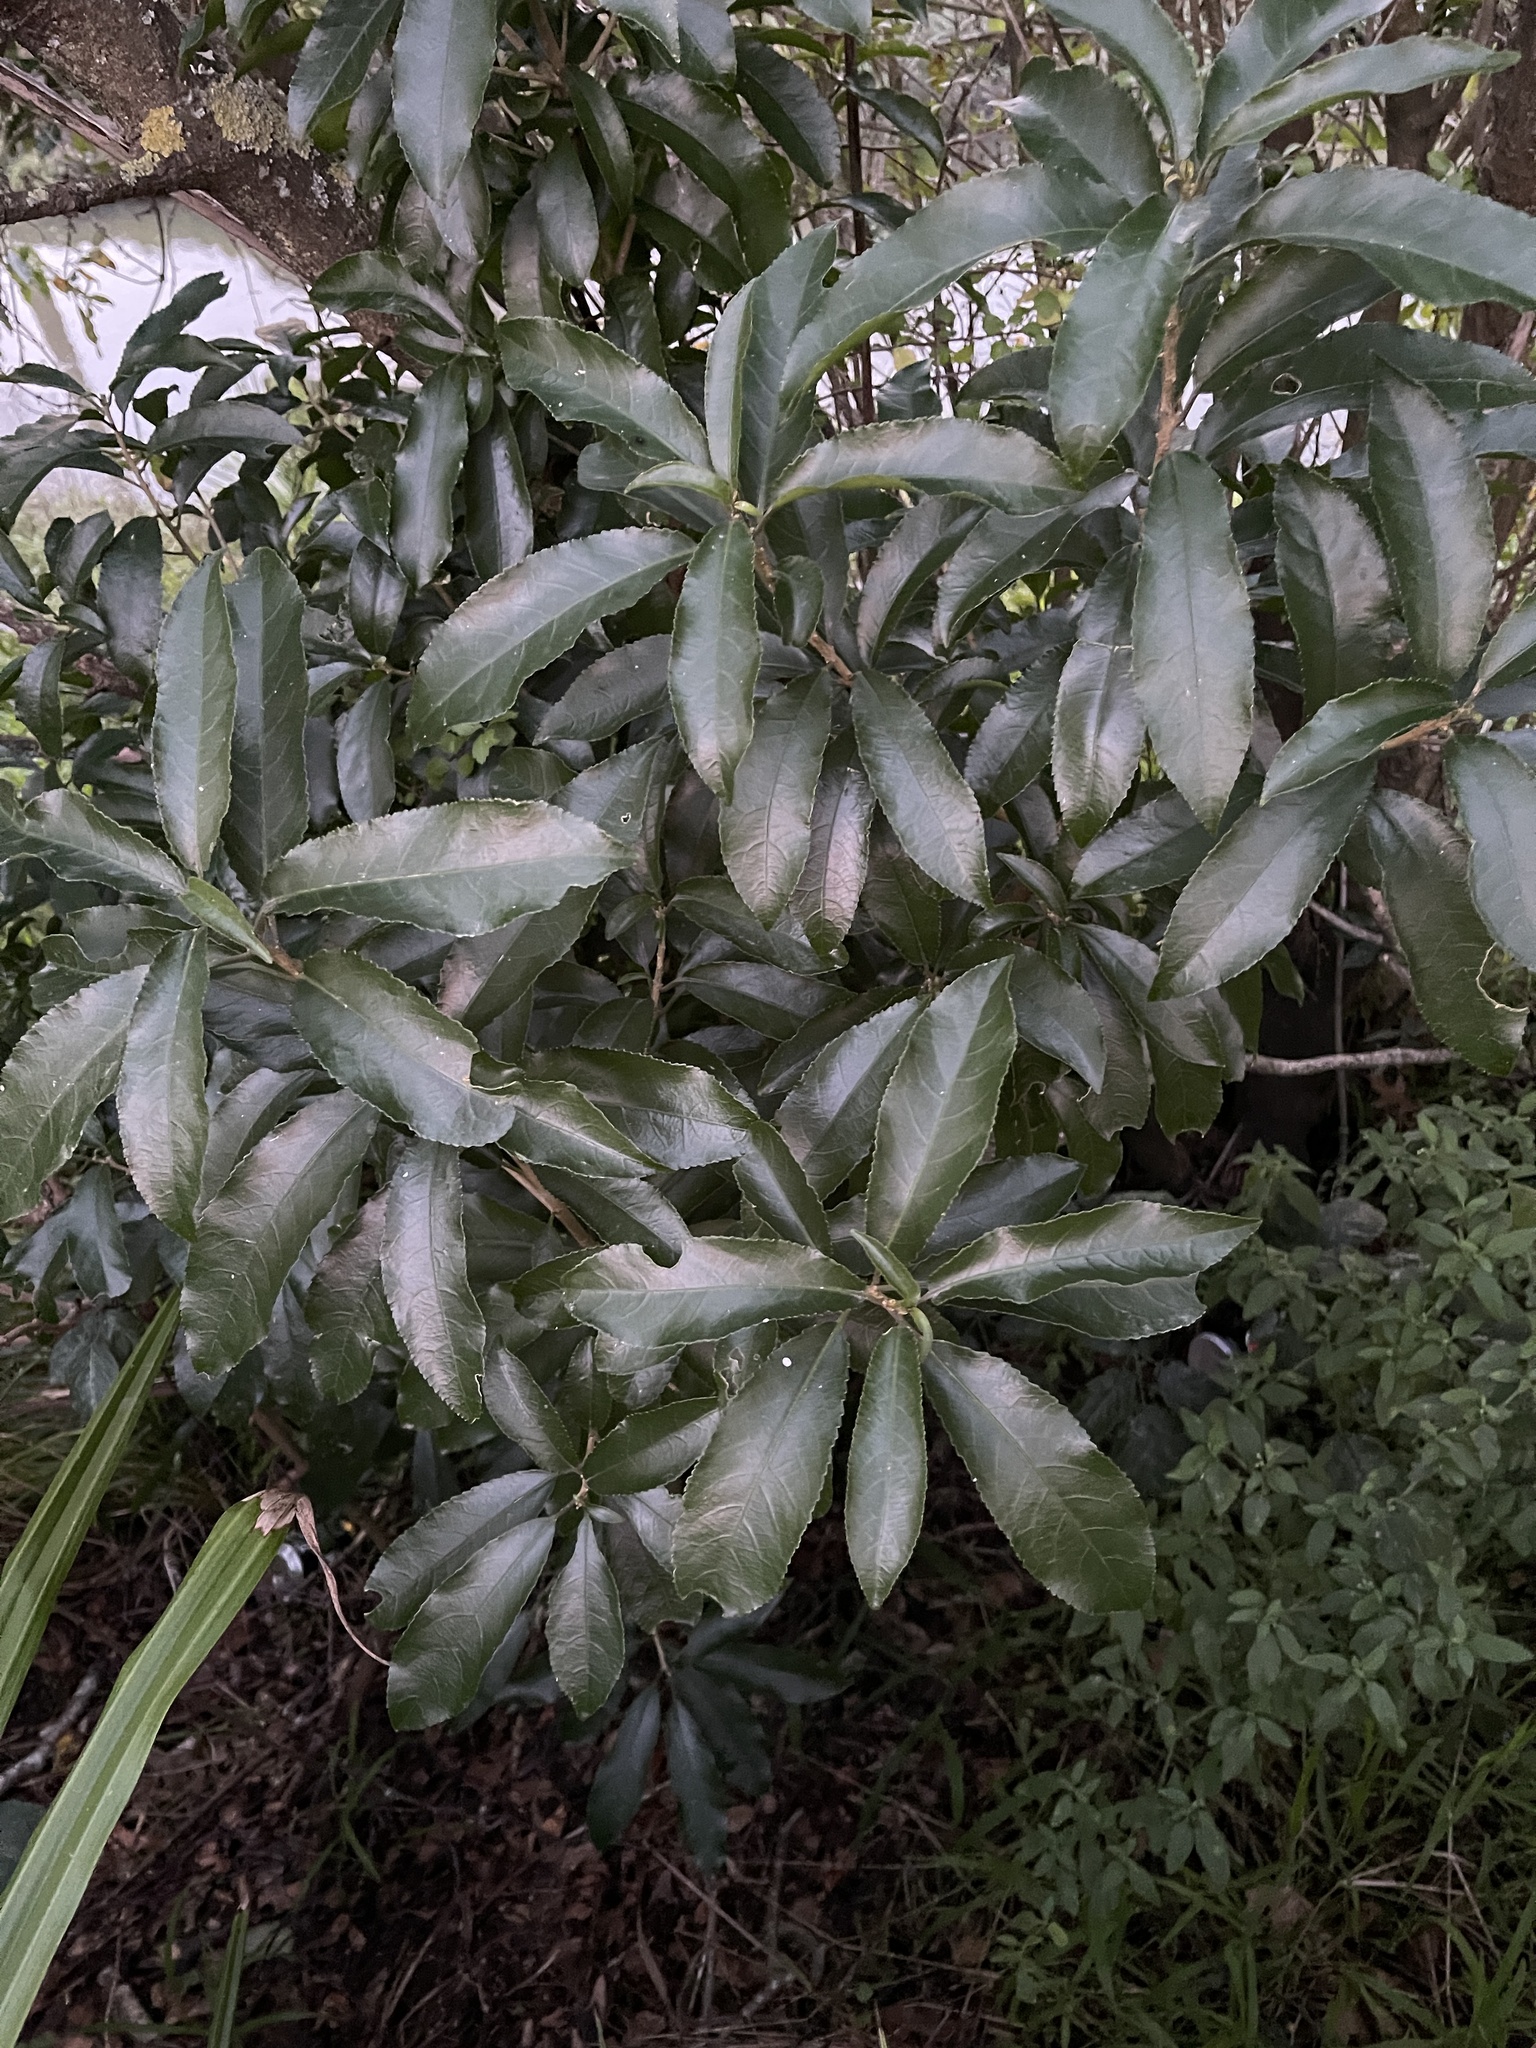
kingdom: Plantae
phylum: Tracheophyta
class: Magnoliopsida
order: Malpighiales
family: Violaceae
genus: Melicytus
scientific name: Melicytus ramiflorus
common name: Mahoe
